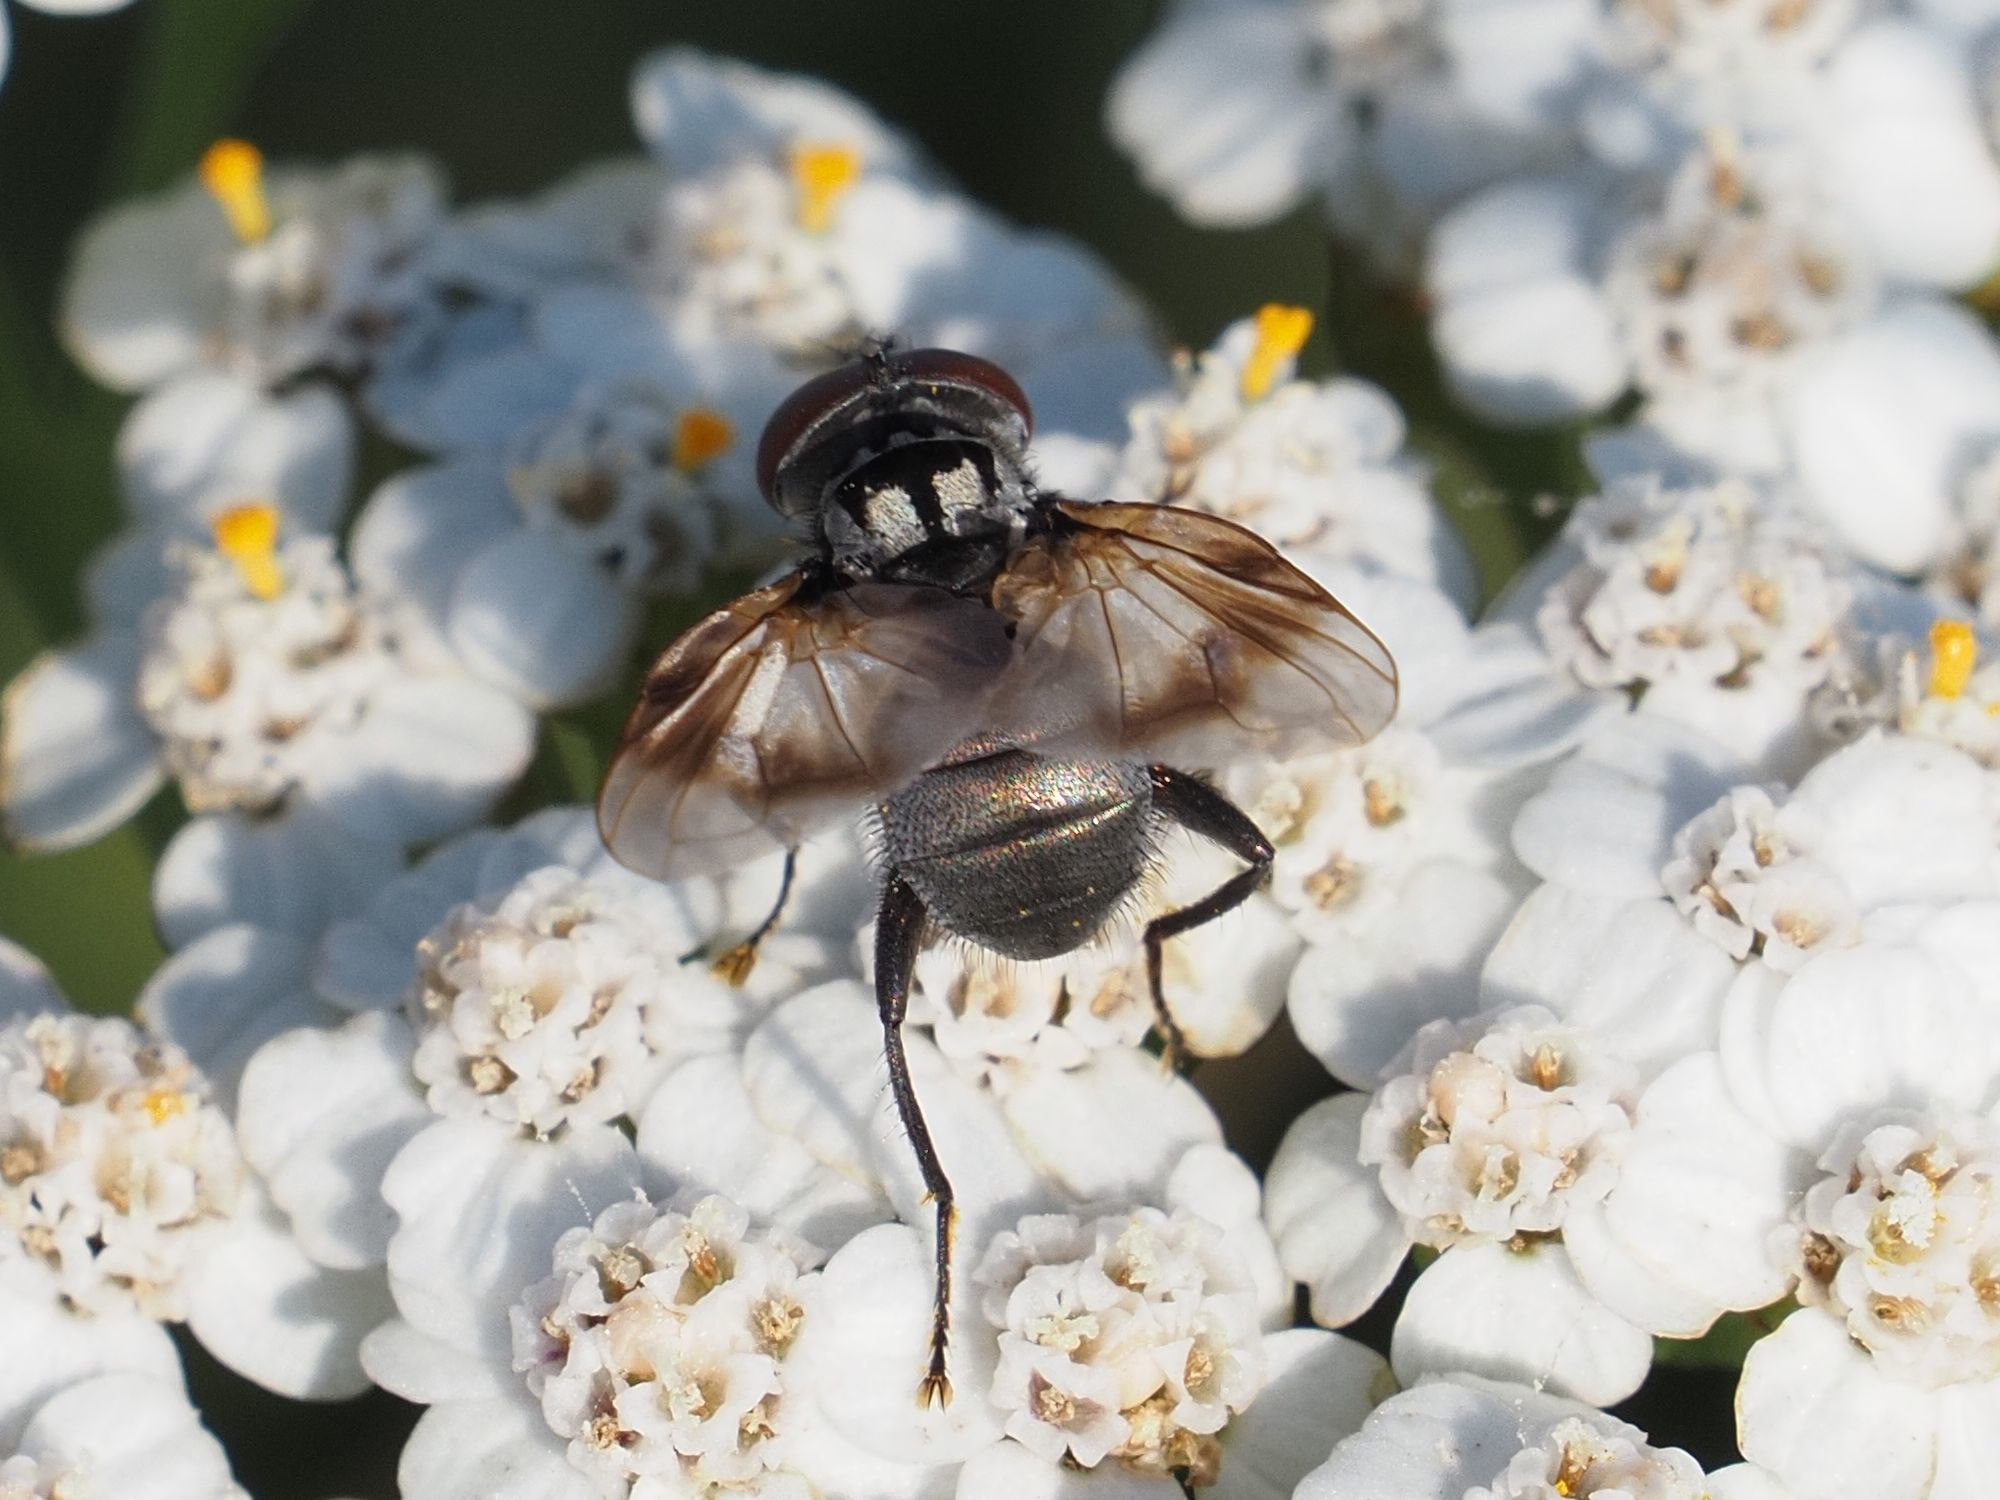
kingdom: Animalia
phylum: Arthropoda
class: Insecta
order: Diptera
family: Tachinidae
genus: Phasia
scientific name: Phasia obesa
